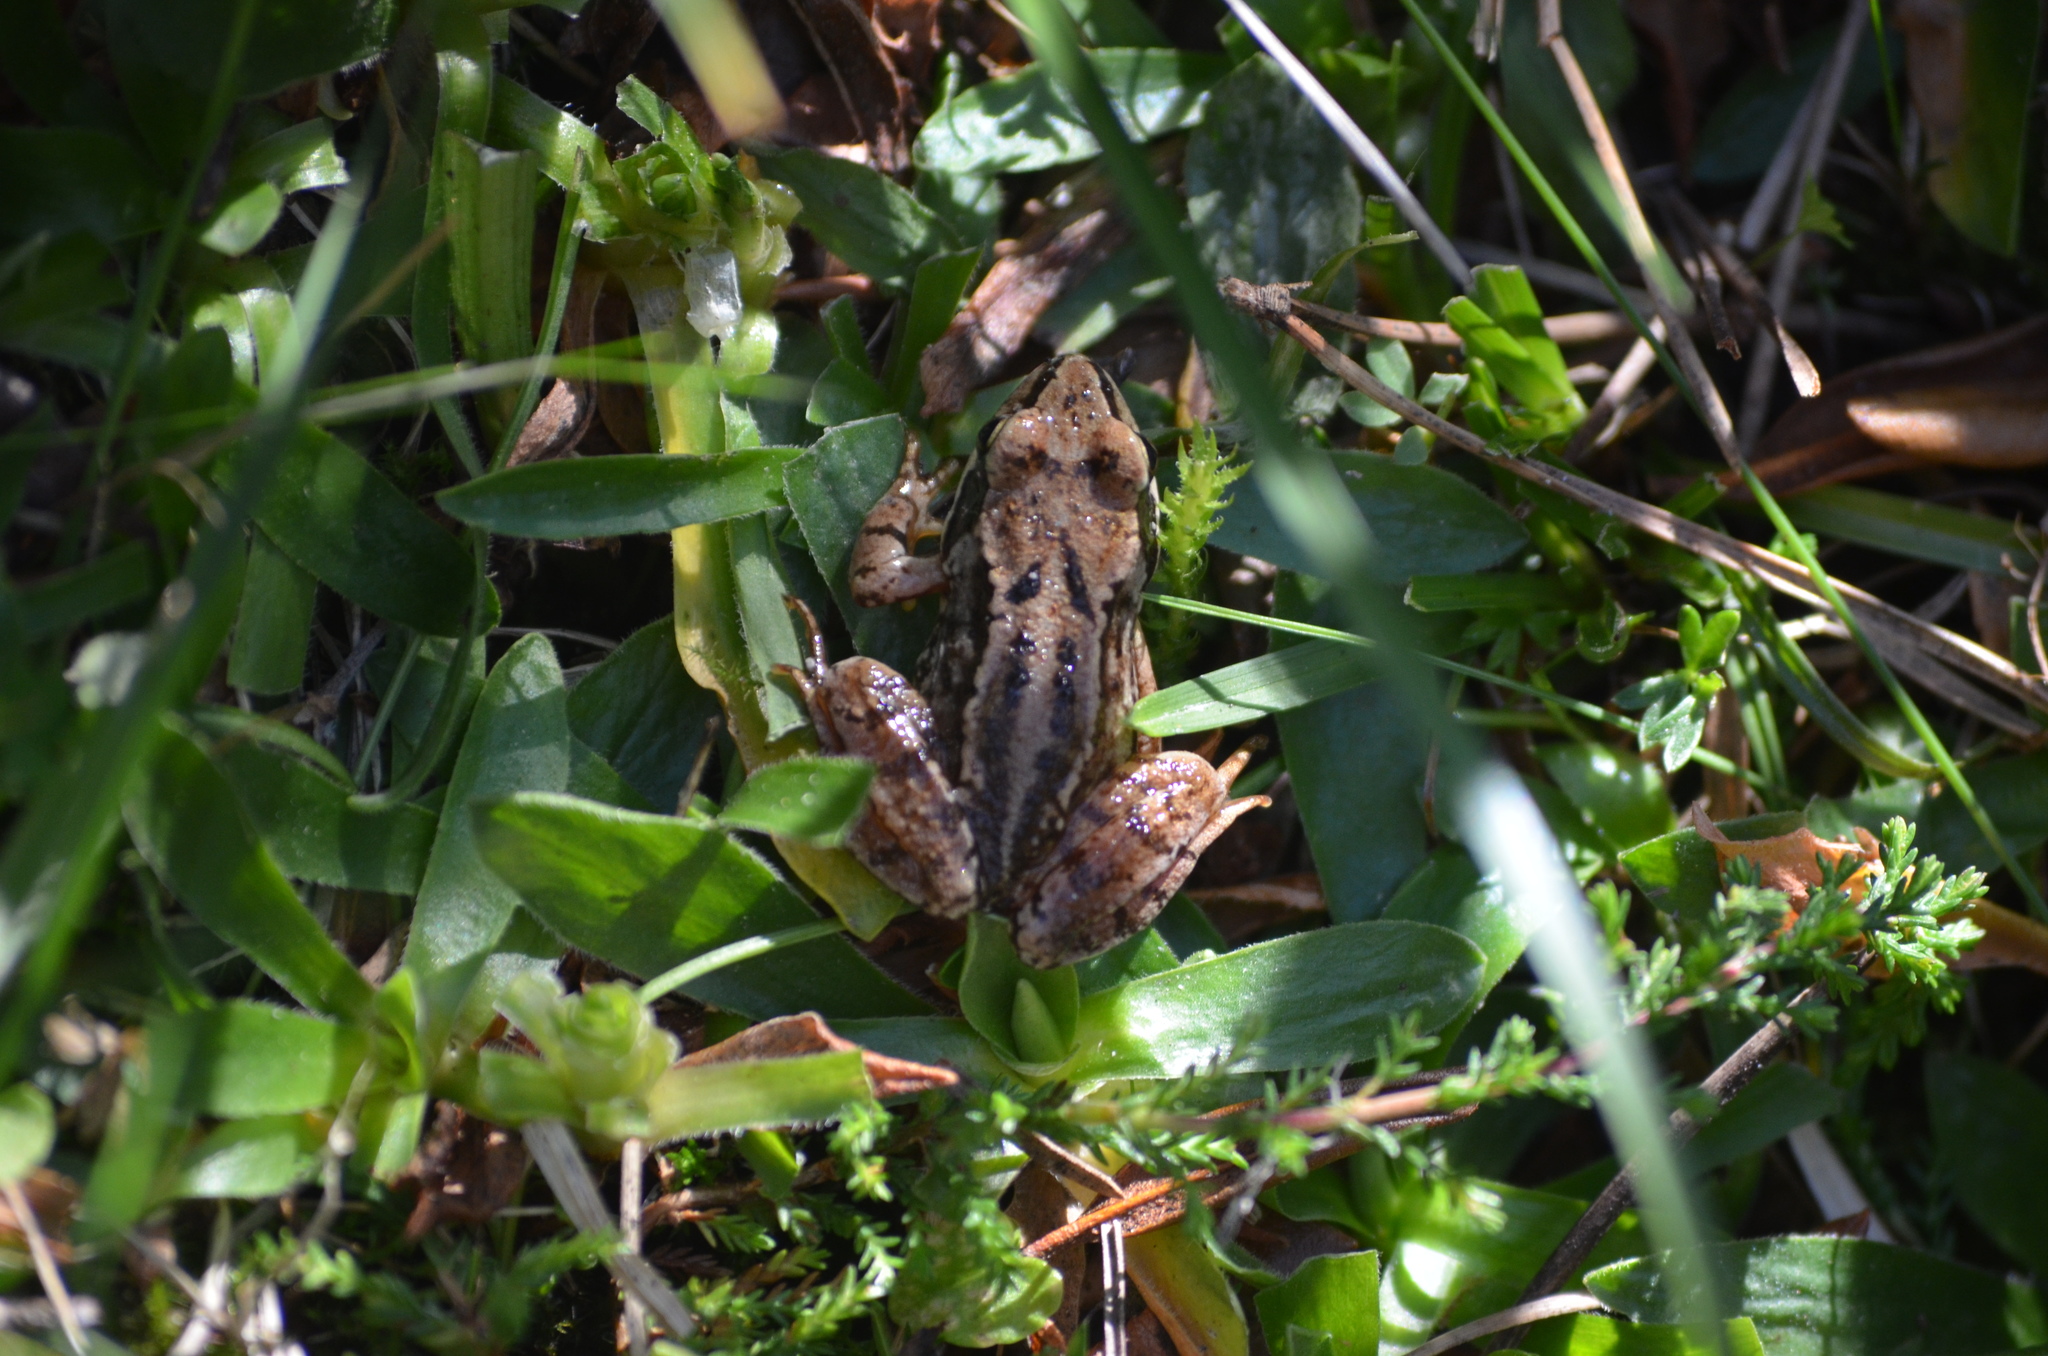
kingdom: Animalia
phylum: Chordata
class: Amphibia
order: Anura
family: Ranidae
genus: Rana
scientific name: Rana temporaria
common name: Common frog
